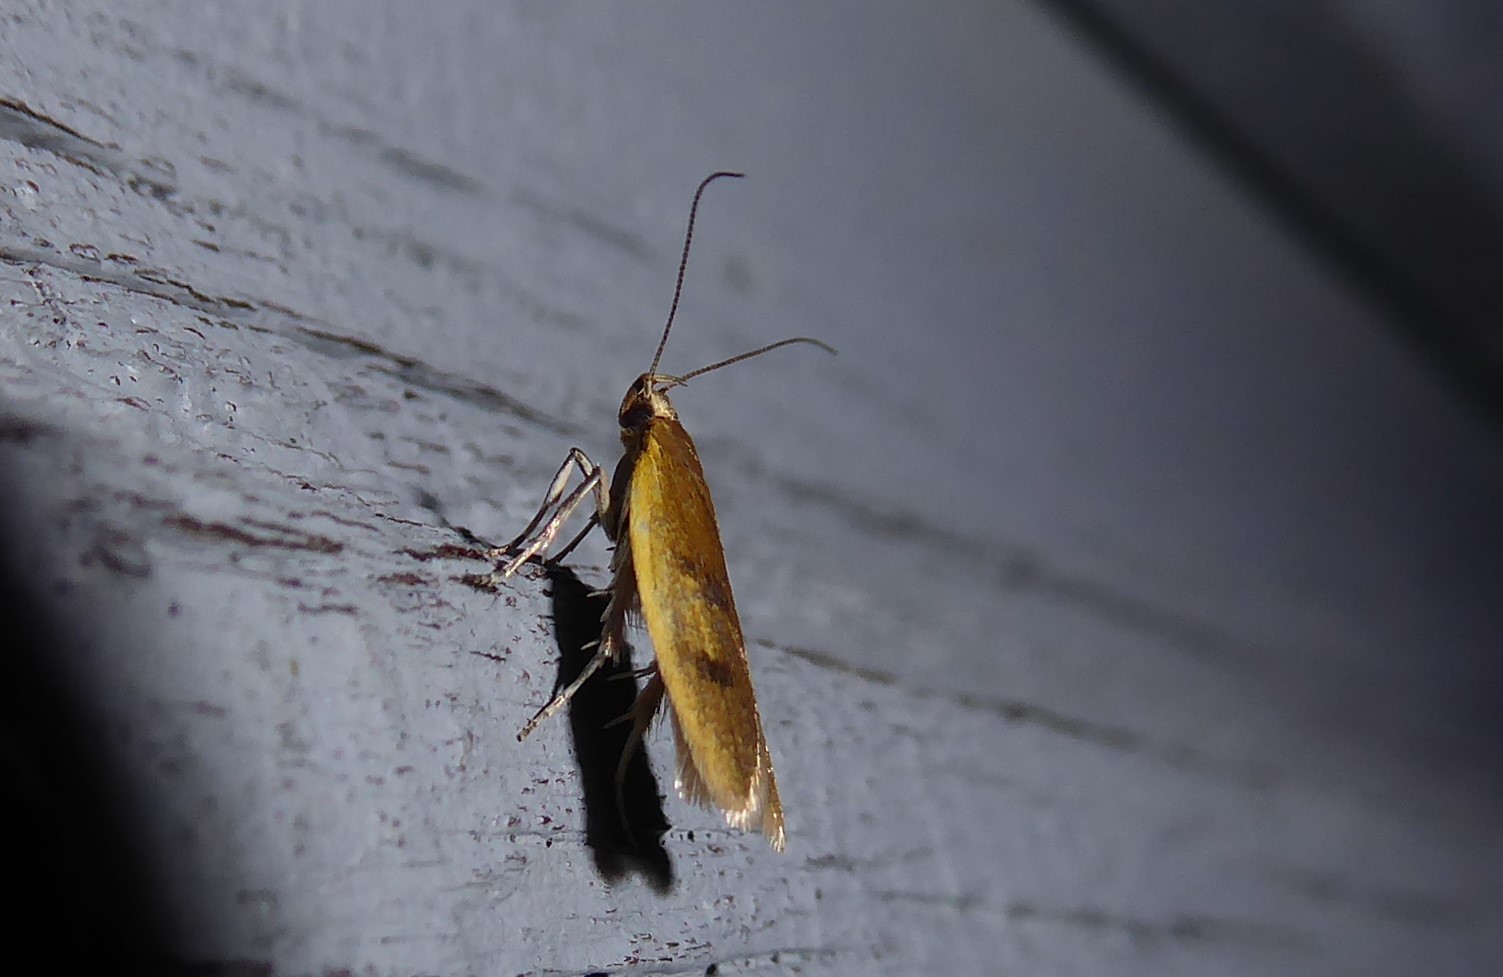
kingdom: Animalia
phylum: Arthropoda
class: Insecta
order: Lepidoptera
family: Oecophoridae
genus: Gymnobathra
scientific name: Gymnobathra parca
